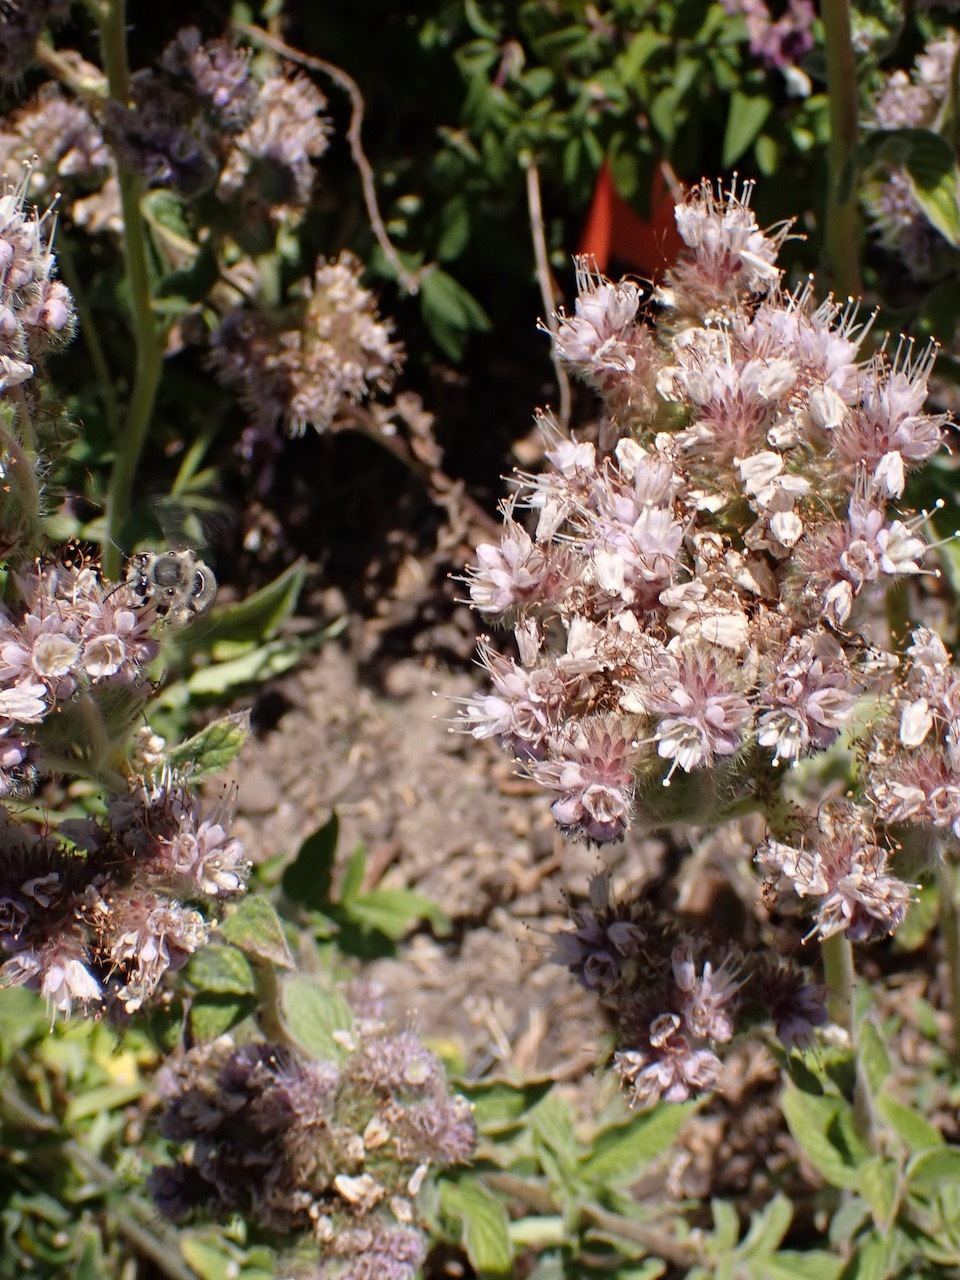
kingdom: Animalia
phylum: Arthropoda
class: Insecta
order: Hymenoptera
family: Apidae
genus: Habropoda
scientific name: Habropoda depressa
